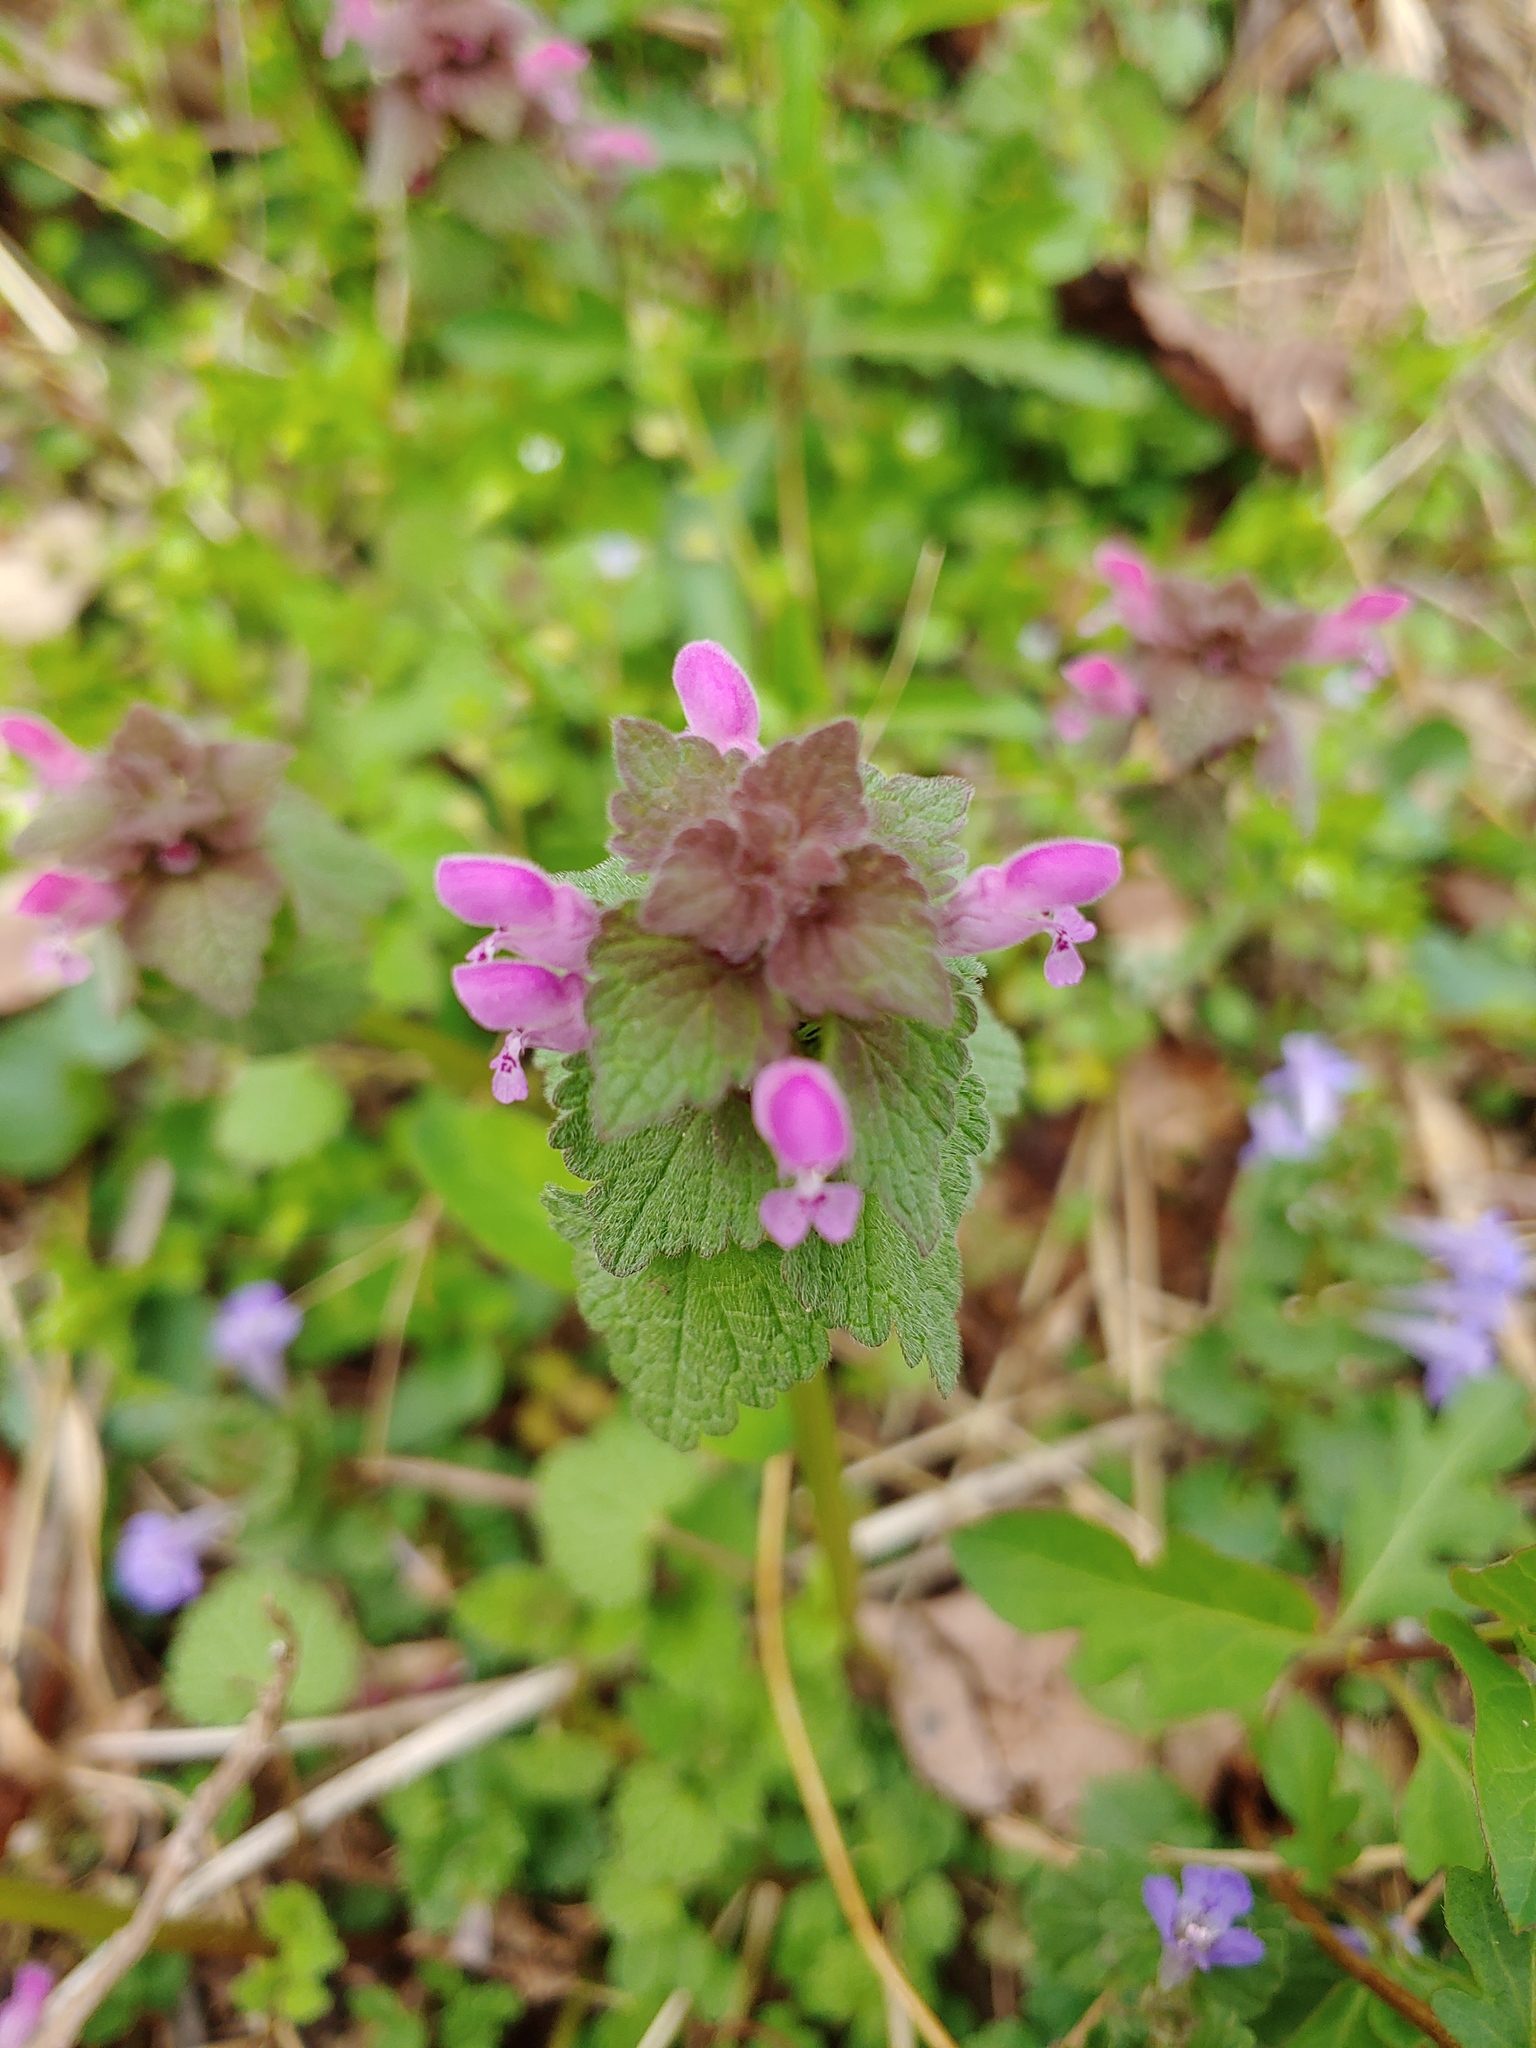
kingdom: Plantae
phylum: Tracheophyta
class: Magnoliopsida
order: Lamiales
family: Lamiaceae
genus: Lamium
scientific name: Lamium purpureum
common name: Red dead-nettle
